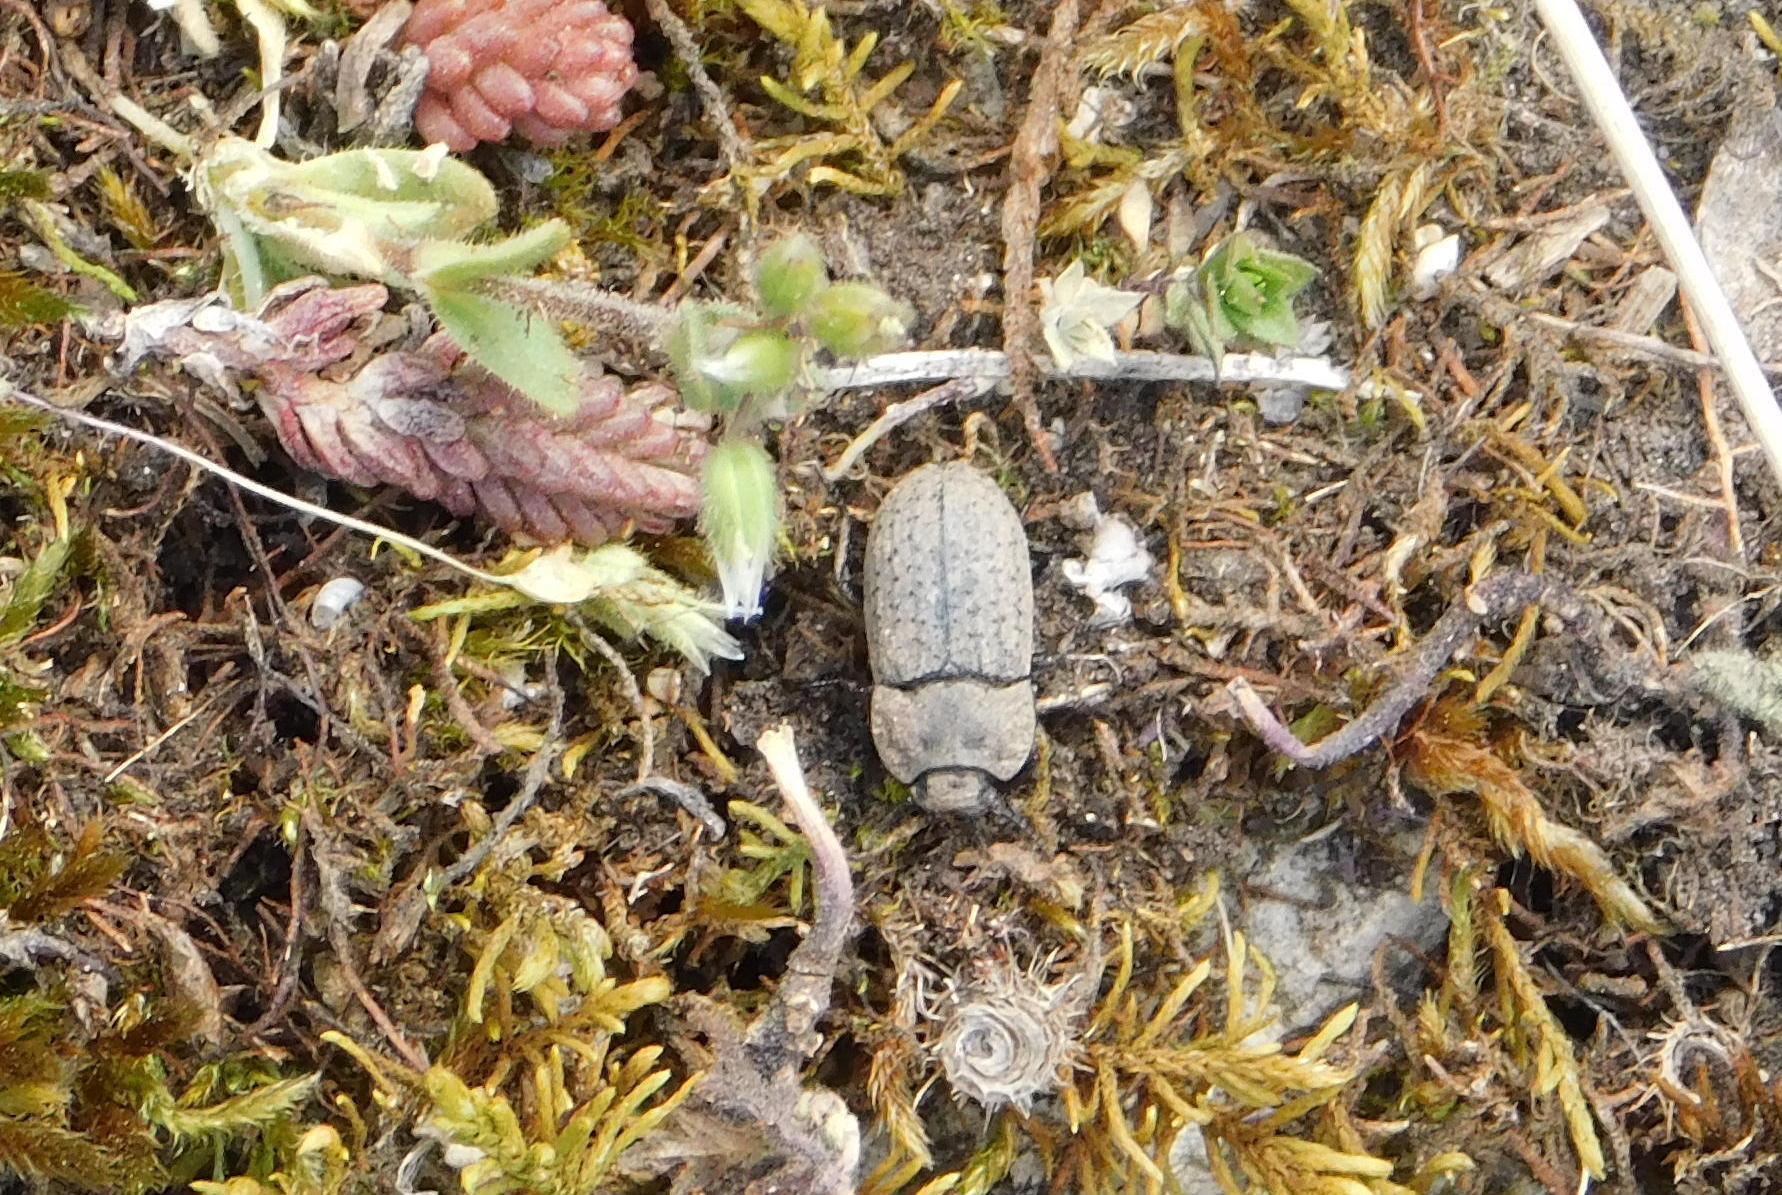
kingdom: Animalia
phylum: Arthropoda
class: Insecta
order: Coleoptera
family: Tenebrionidae
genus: Opatrum
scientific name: Opatrum sabulosum
